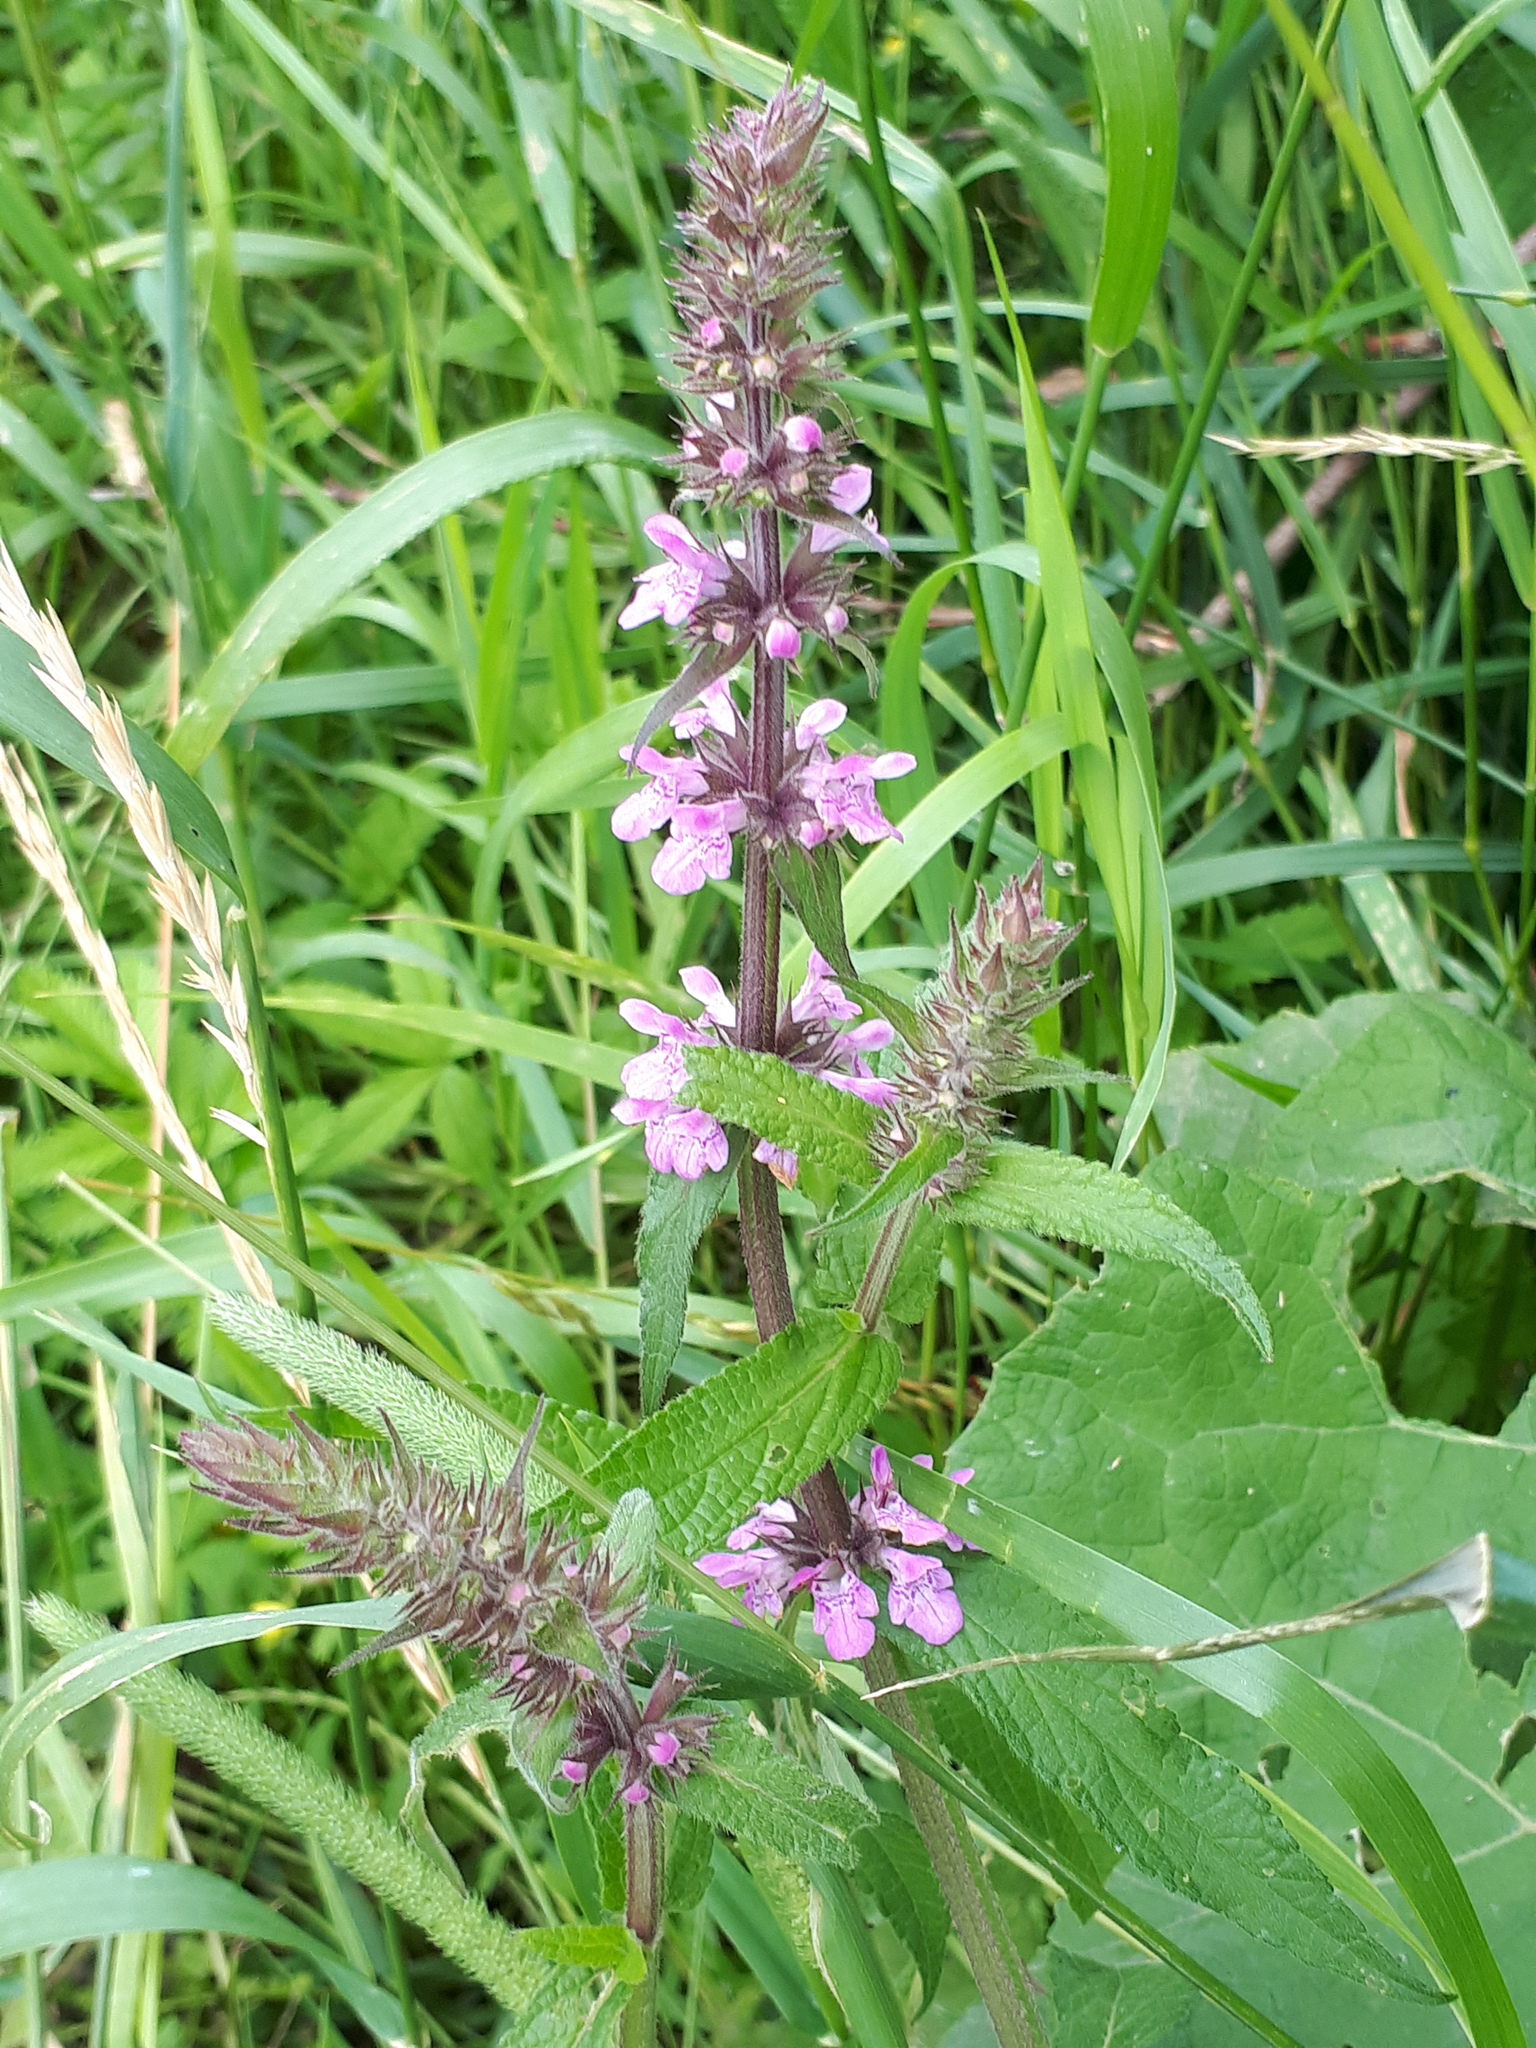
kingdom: Plantae
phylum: Tracheophyta
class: Magnoliopsida
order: Lamiales
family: Lamiaceae
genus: Stachys
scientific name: Stachys palustris
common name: Marsh woundwort
